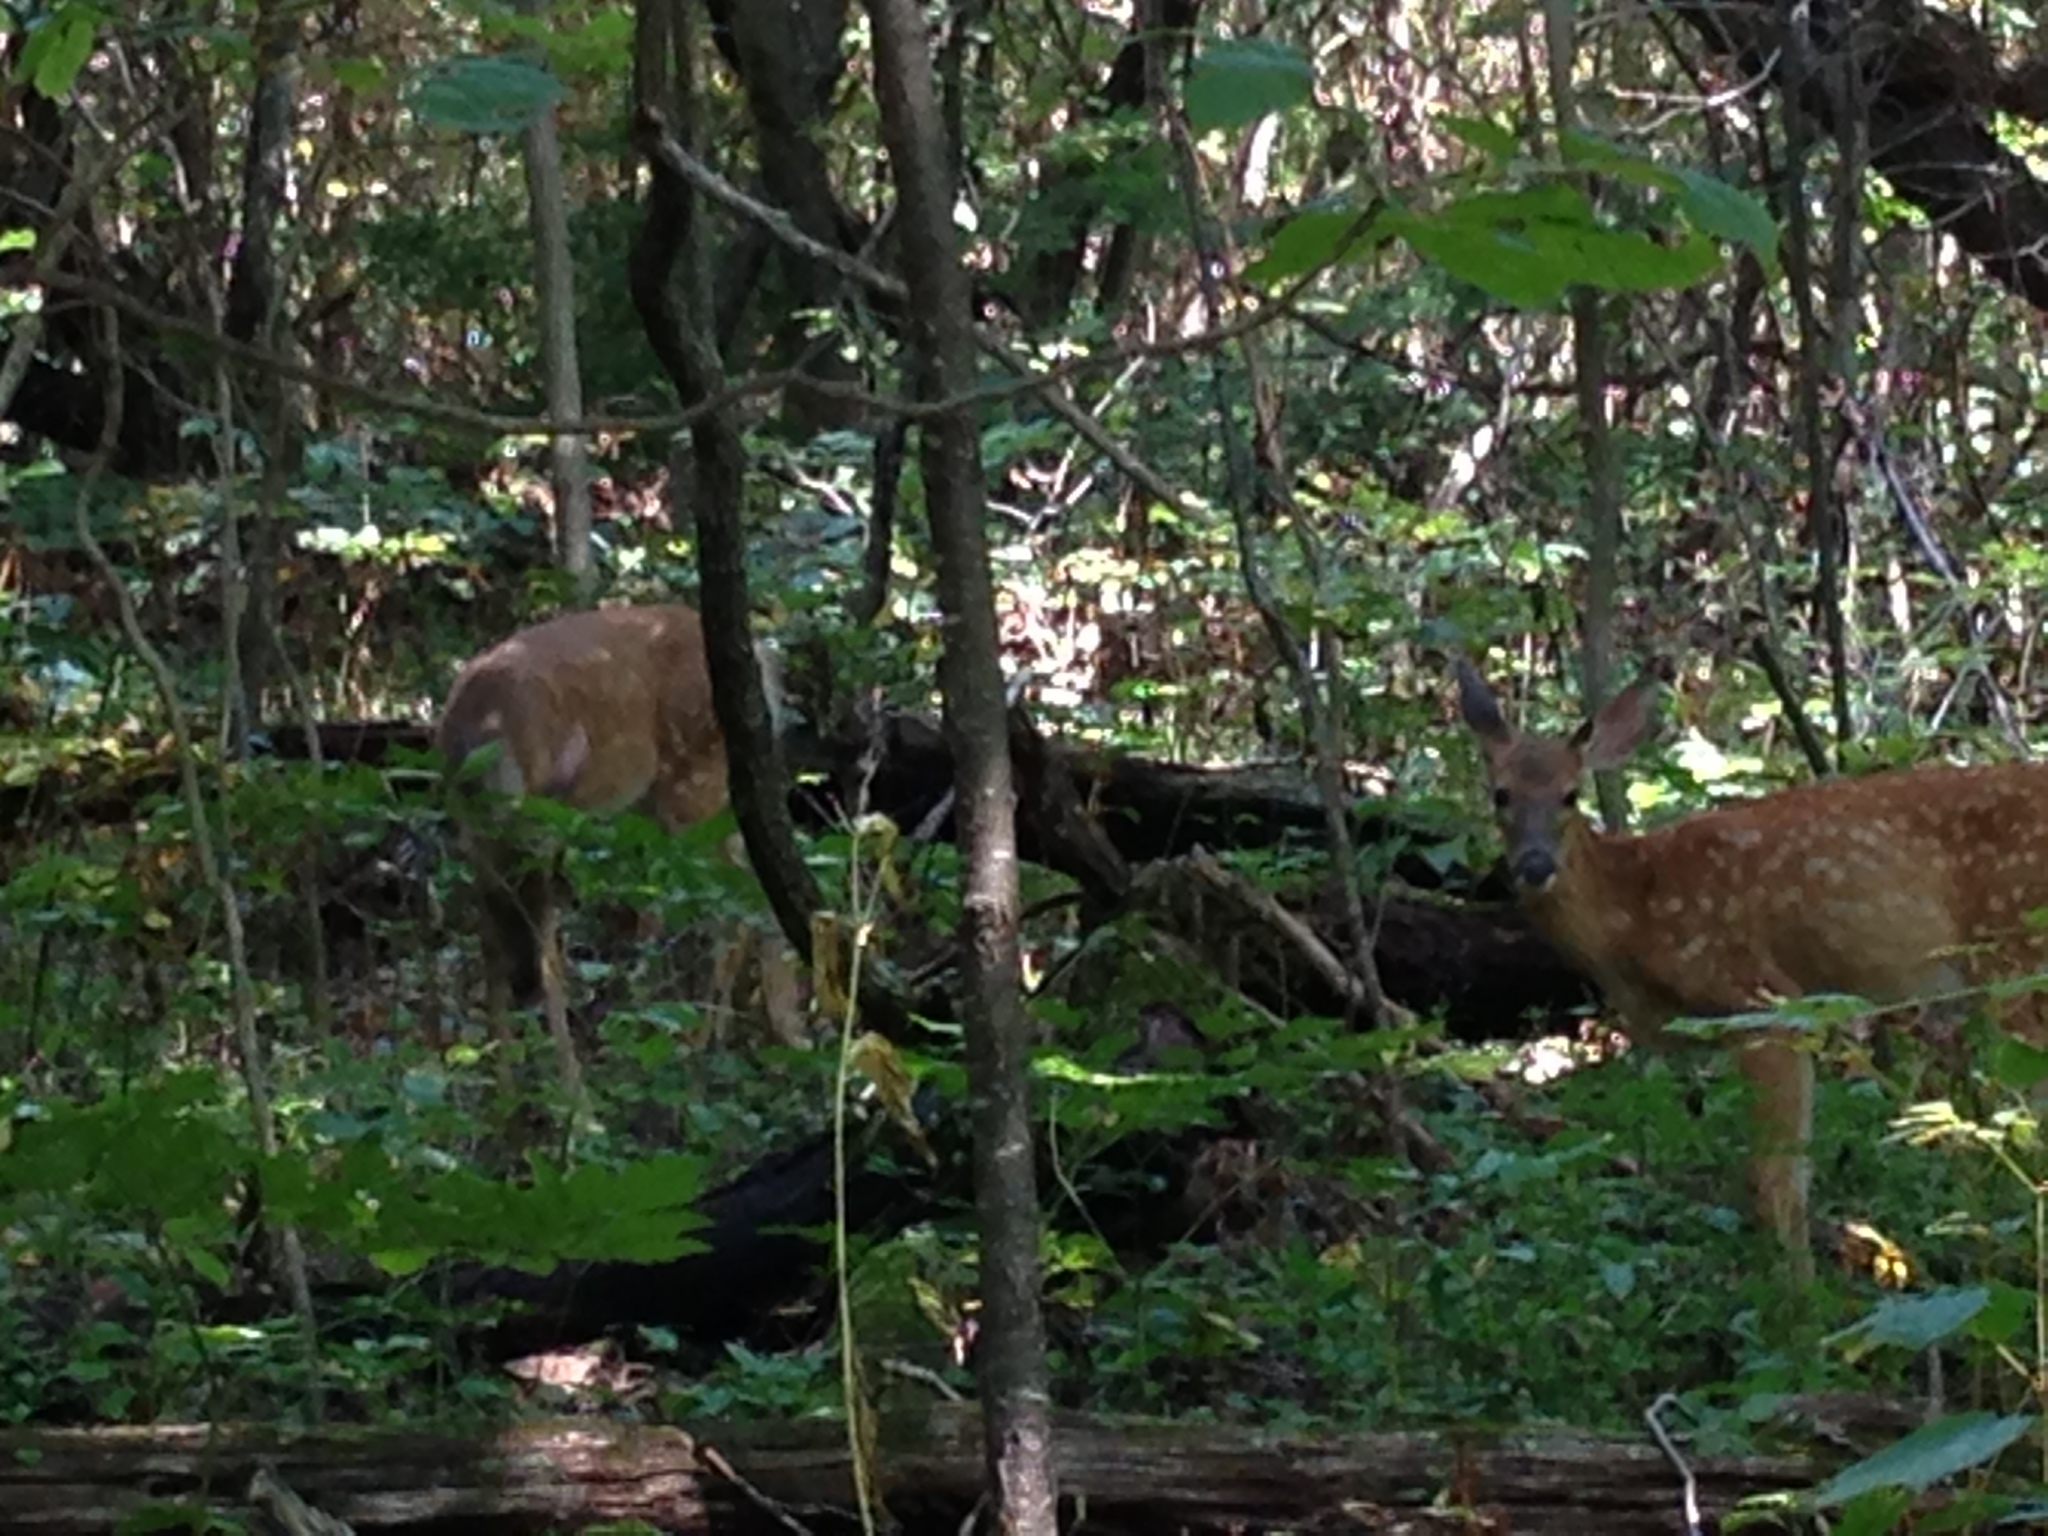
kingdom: Animalia
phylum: Chordata
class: Mammalia
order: Artiodactyla
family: Cervidae
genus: Odocoileus
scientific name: Odocoileus virginianus
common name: White-tailed deer
